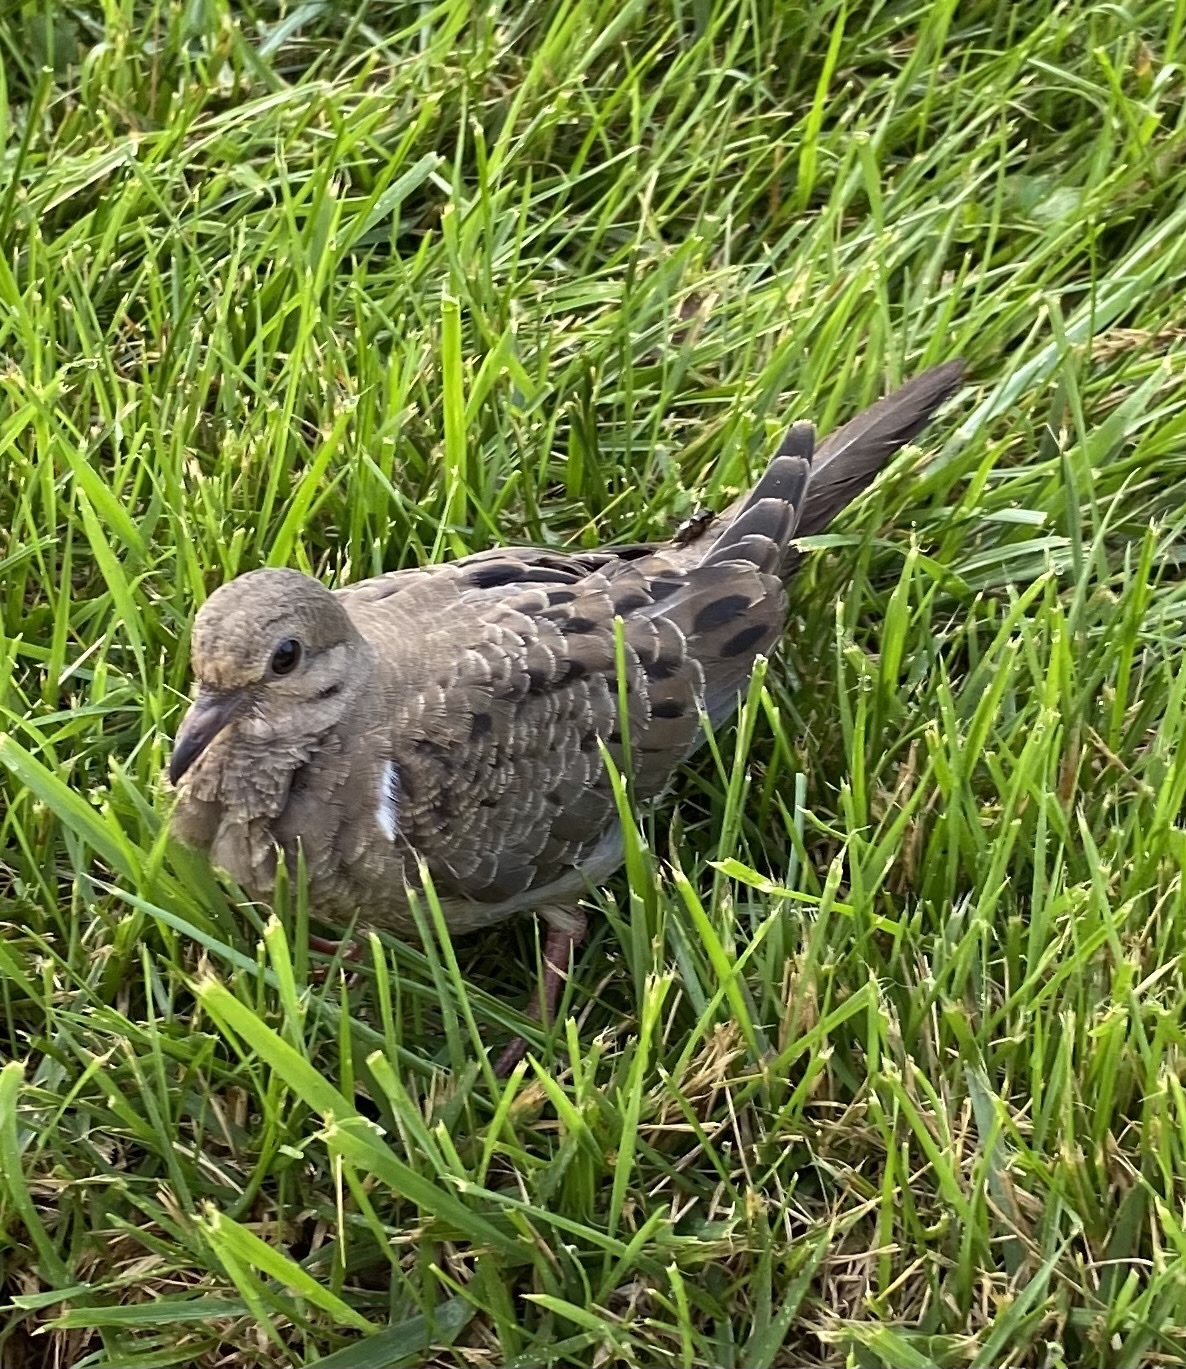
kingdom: Animalia
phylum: Chordata
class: Aves
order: Columbiformes
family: Columbidae
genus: Zenaida
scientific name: Zenaida macroura
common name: Mourning dove
